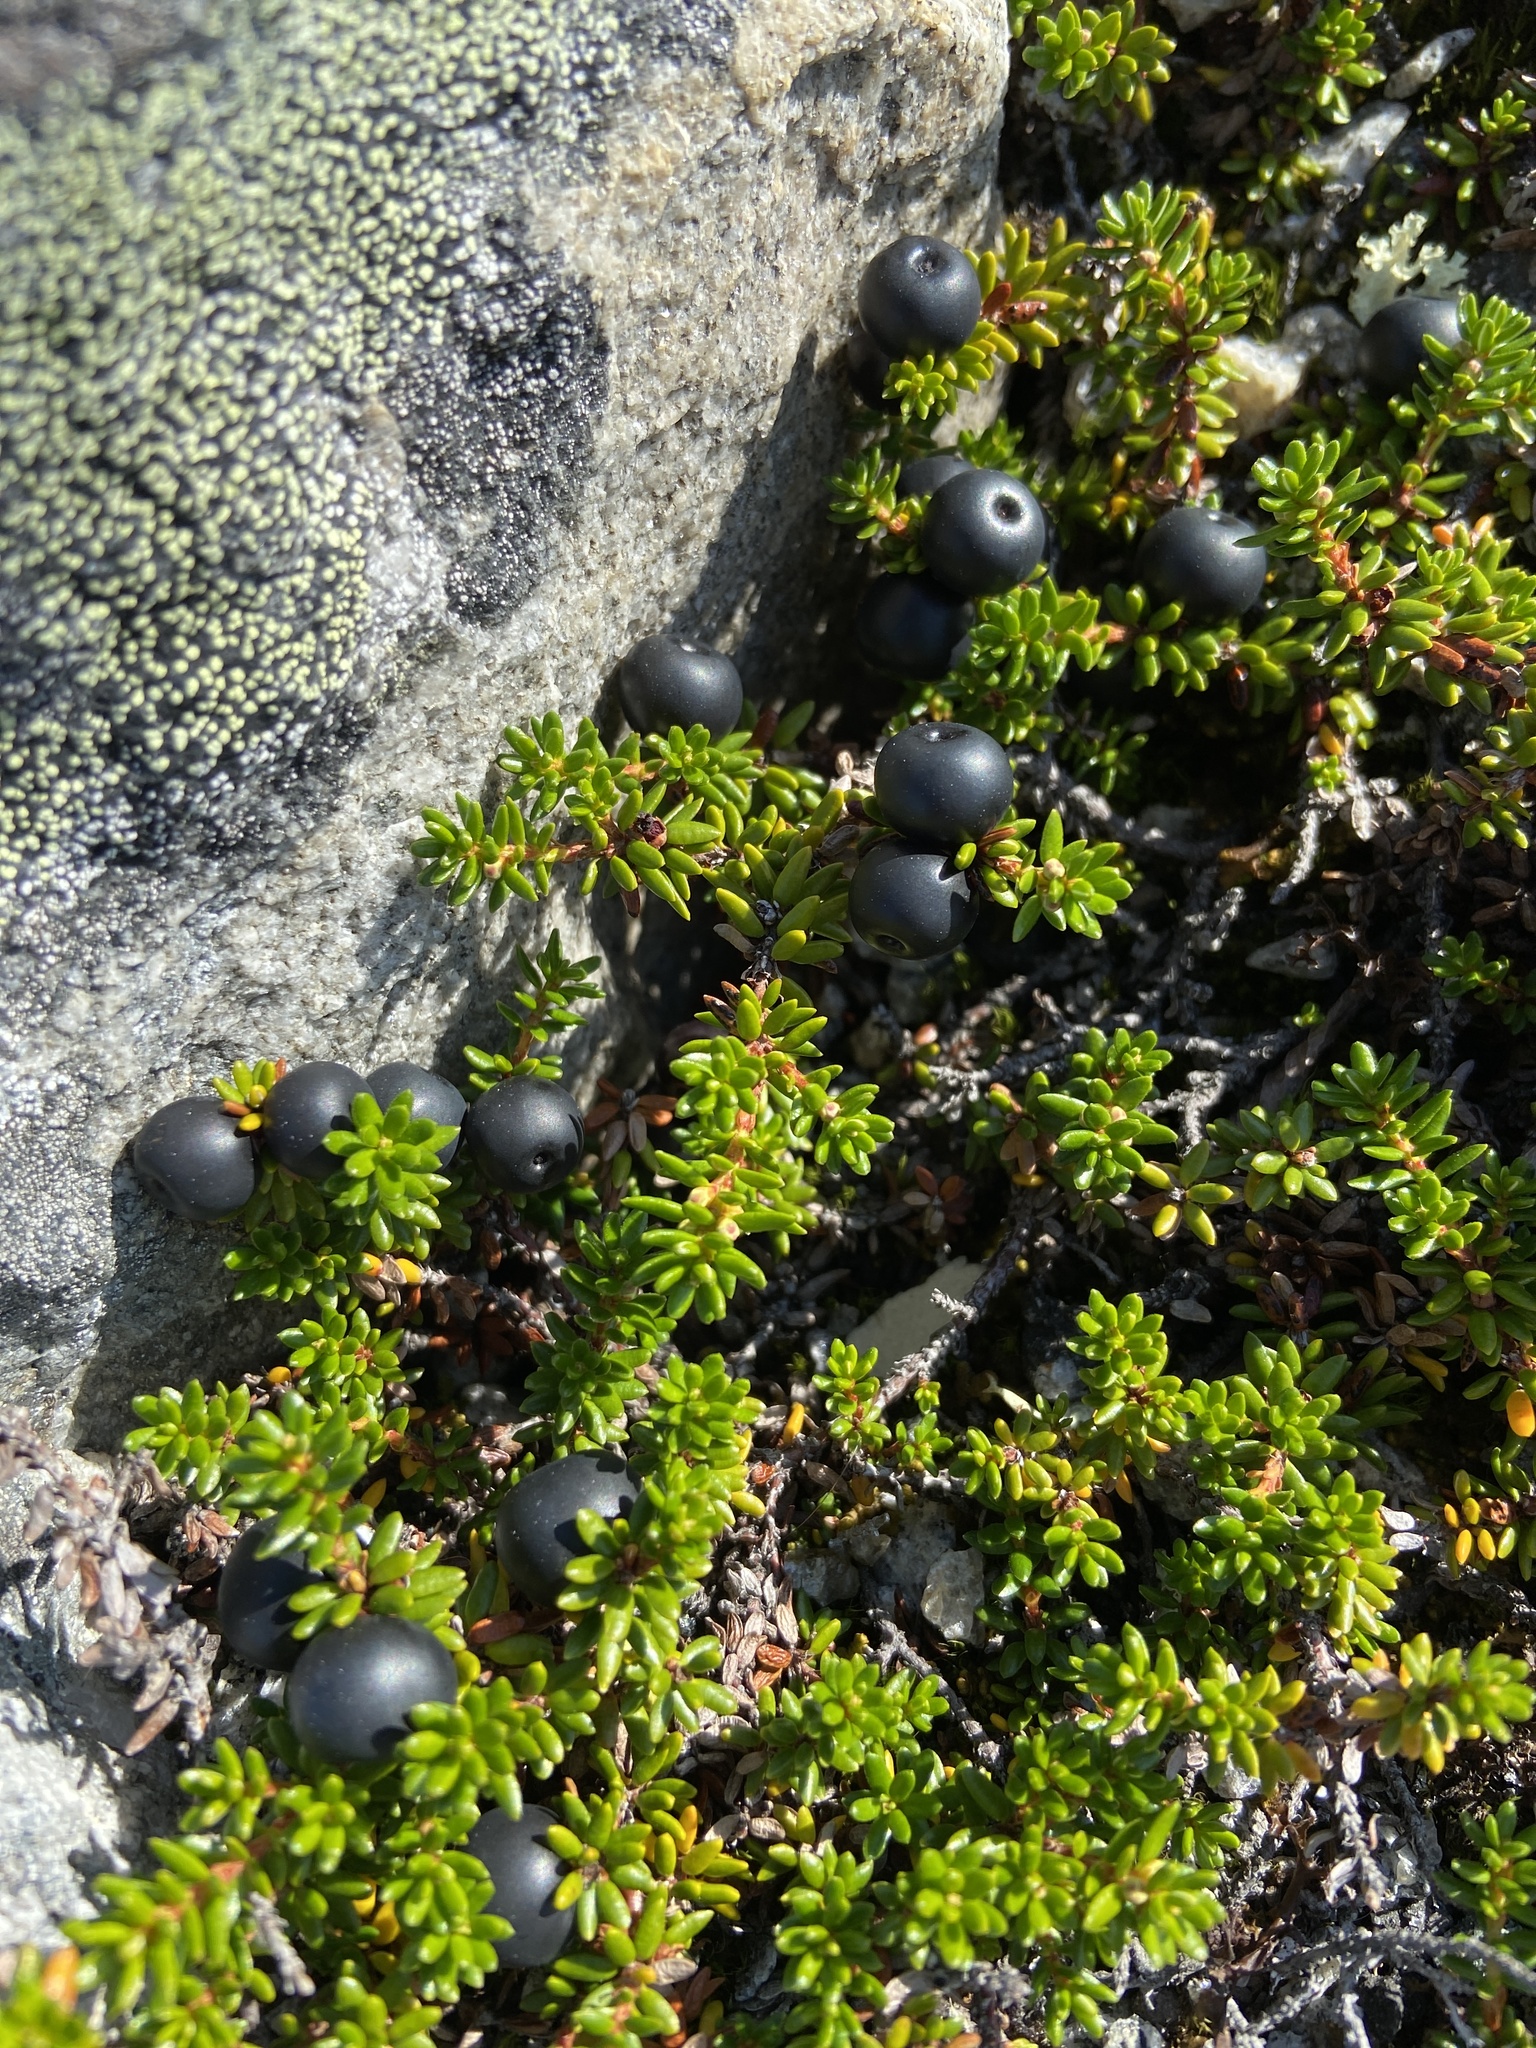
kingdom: Plantae
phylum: Tracheophyta
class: Magnoliopsida
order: Ericales
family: Ericaceae
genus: Empetrum
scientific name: Empetrum hermaphroditum
